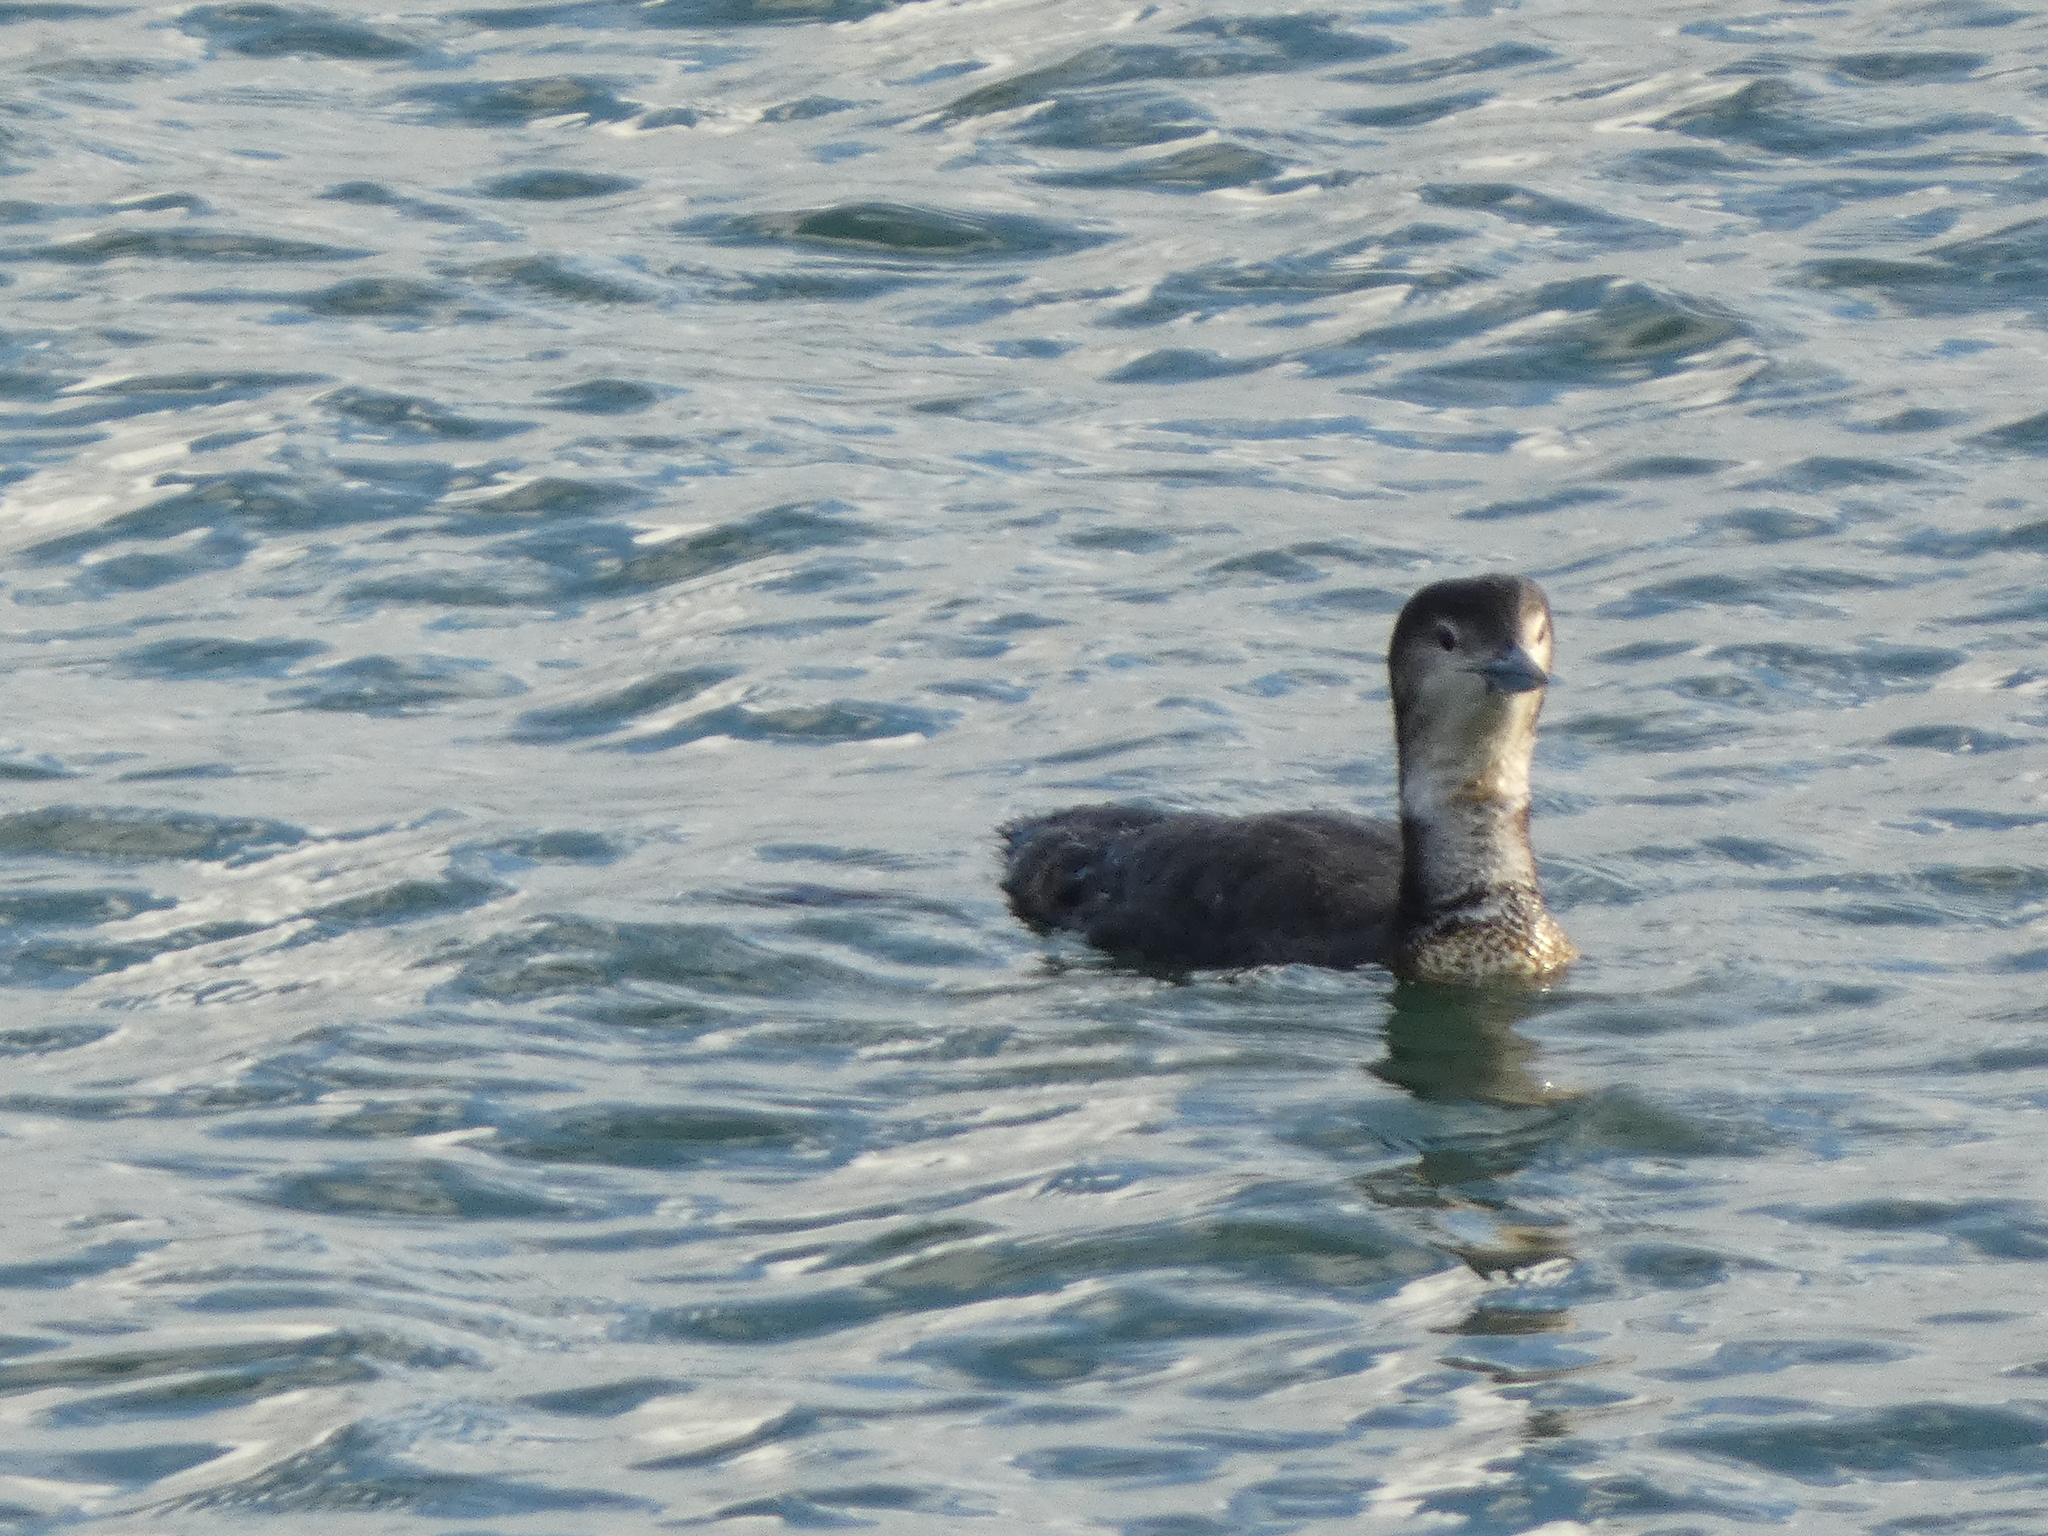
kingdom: Animalia
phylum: Chordata
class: Aves
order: Gaviiformes
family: Gaviidae
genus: Gavia
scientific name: Gavia immer
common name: Common loon
